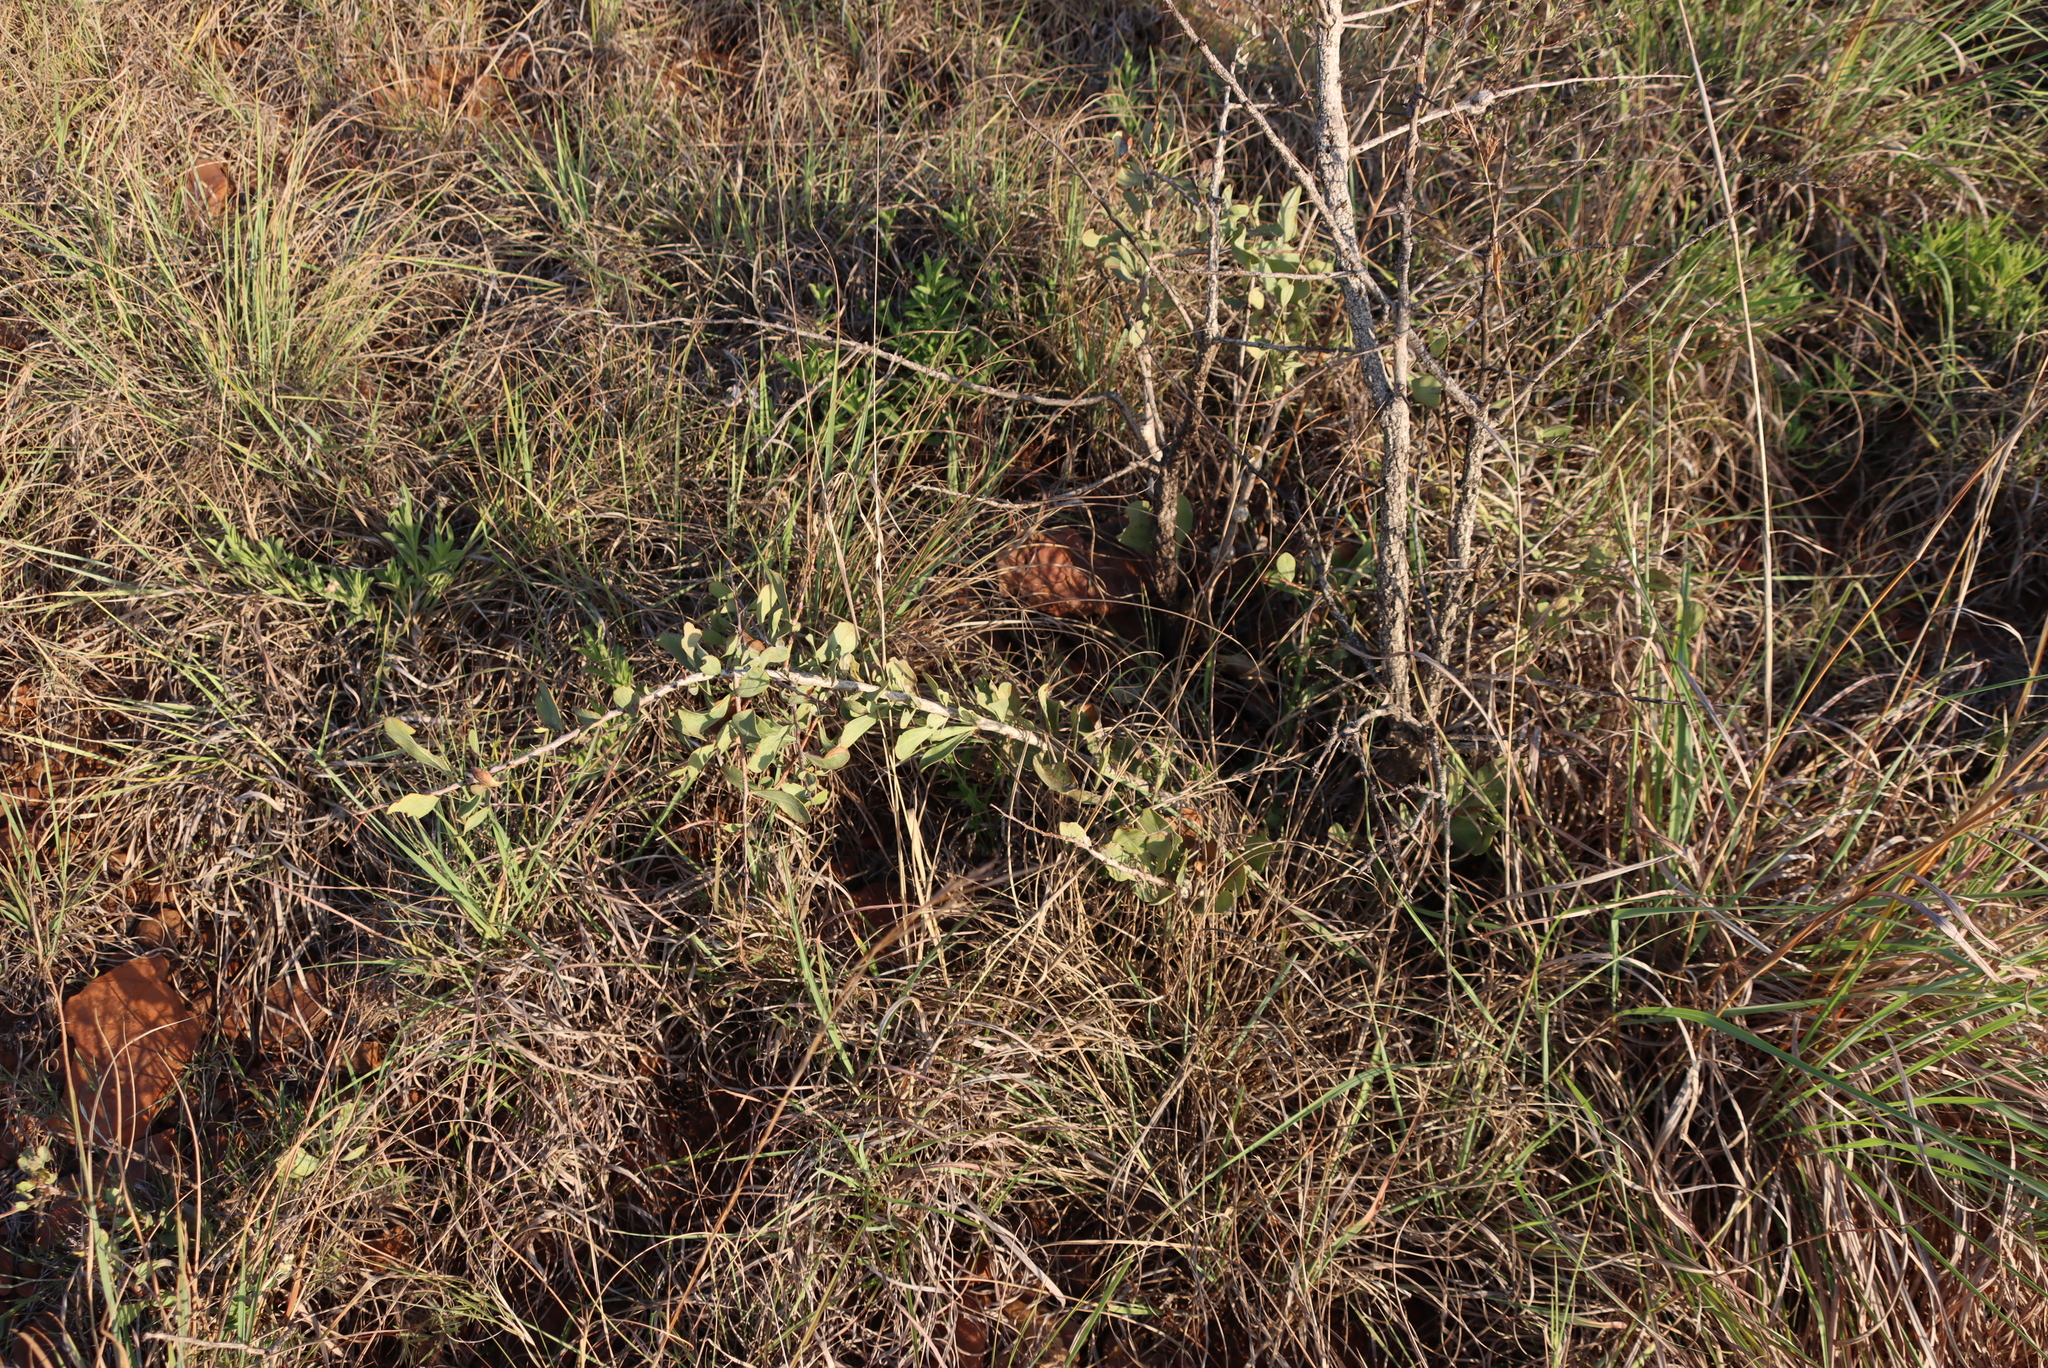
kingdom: Plantae
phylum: Tracheophyta
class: Magnoliopsida
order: Celastrales
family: Celastraceae
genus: Gymnosporia
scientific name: Gymnosporia glaucophylla
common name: Blue spike-thorn
